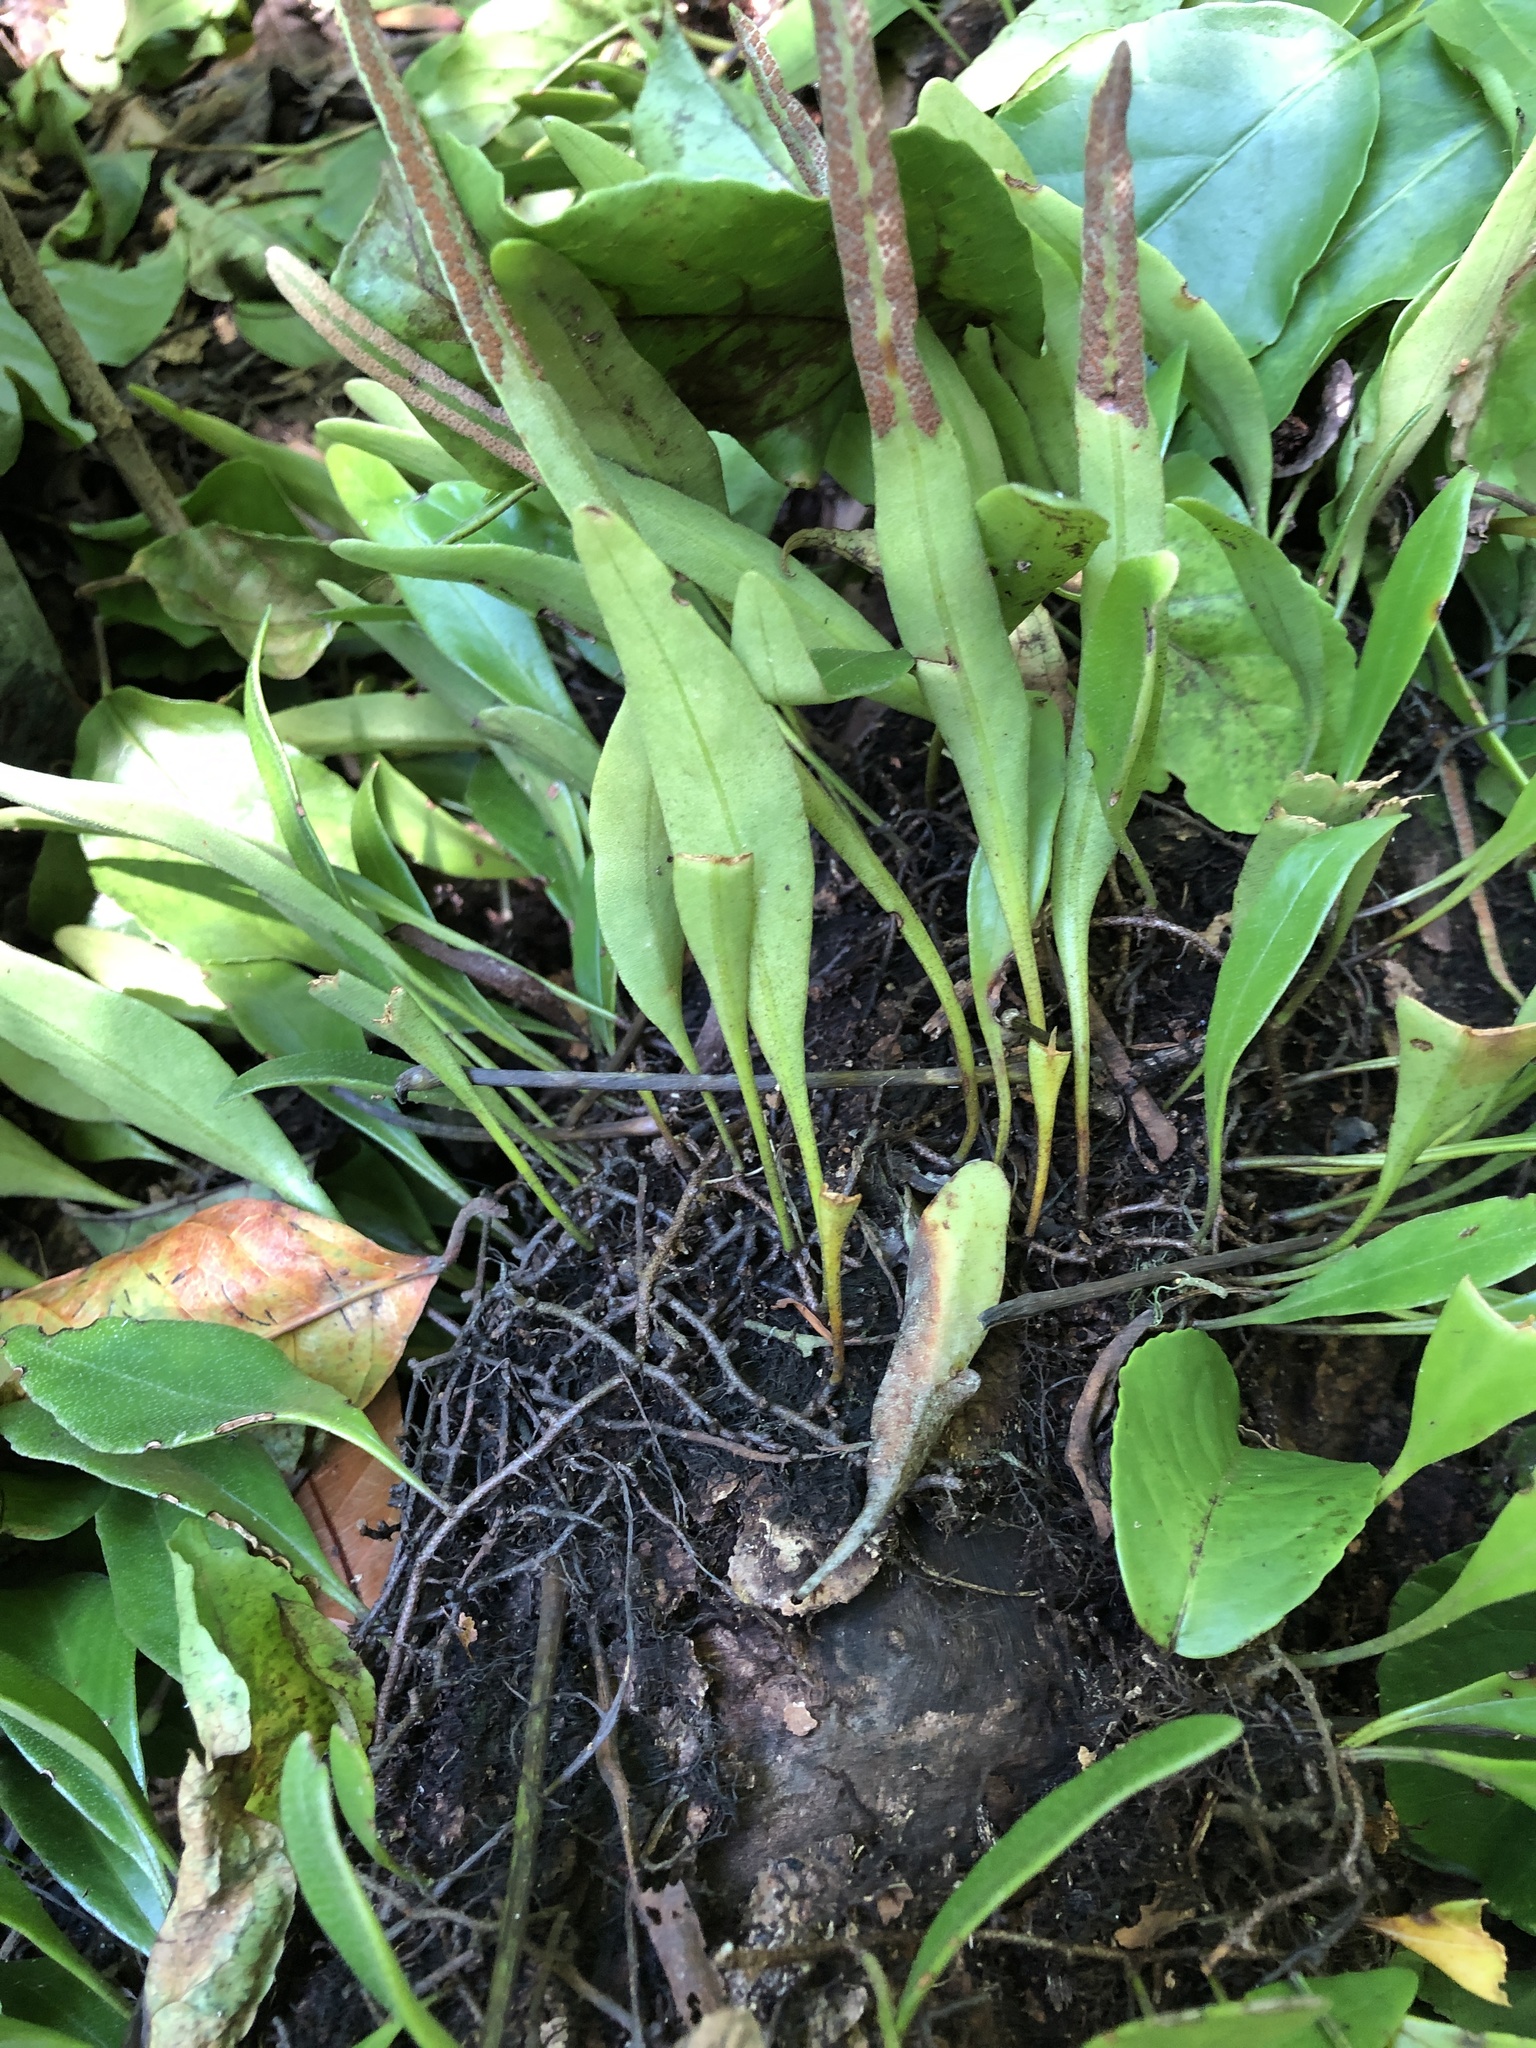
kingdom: Plantae
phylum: Tracheophyta
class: Polypodiopsida
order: Polypodiales
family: Polypodiaceae
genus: Pyrrosia
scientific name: Pyrrosia lanceolata
